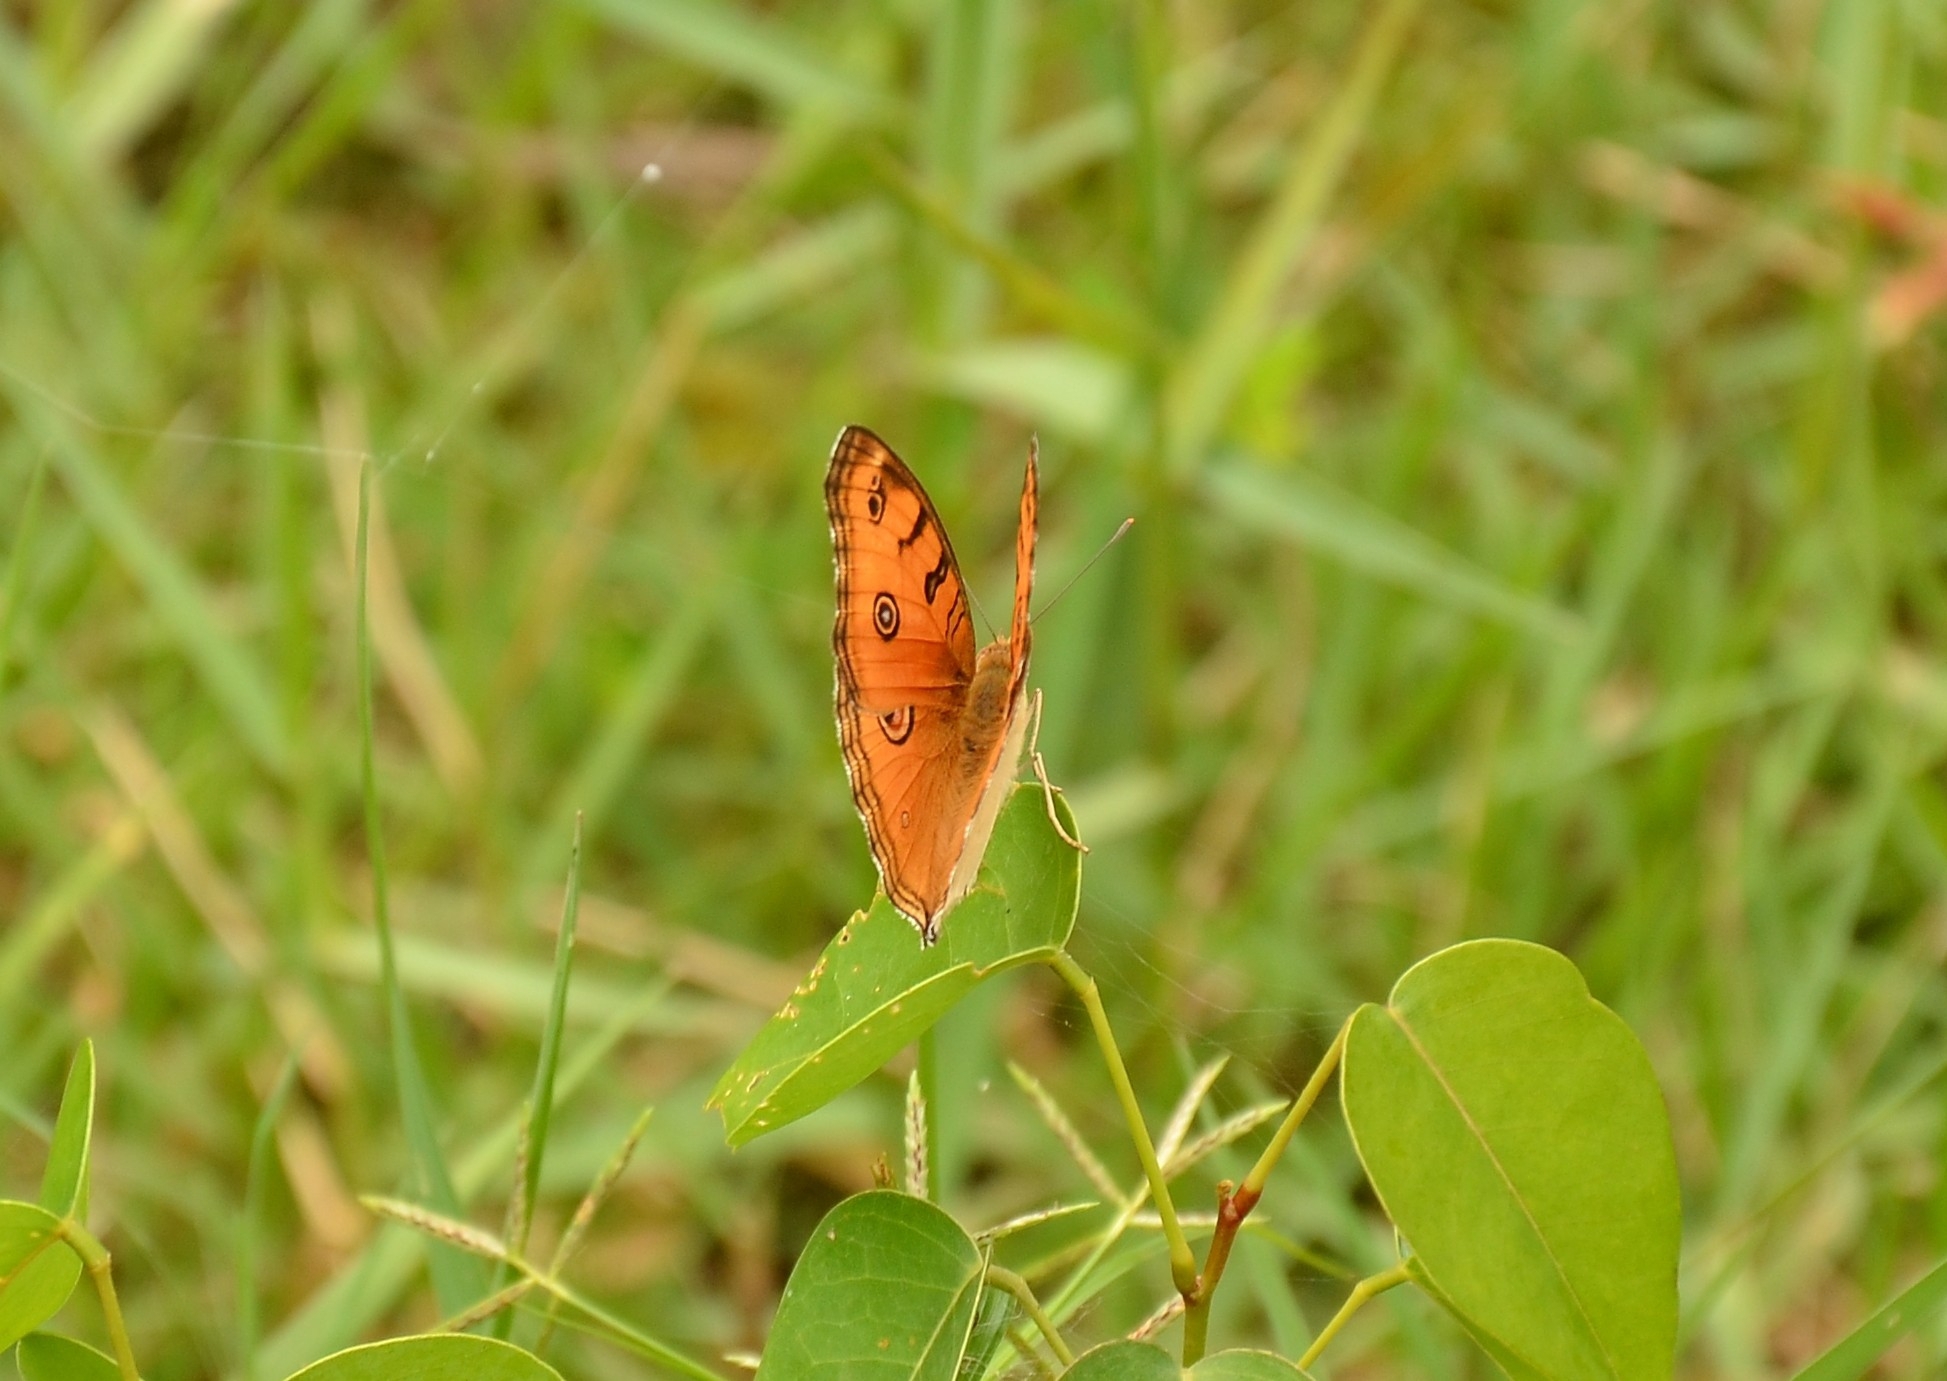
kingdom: Animalia
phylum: Arthropoda
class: Insecta
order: Lepidoptera
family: Nymphalidae
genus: Junonia
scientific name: Junonia almana
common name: Peacock pansy
